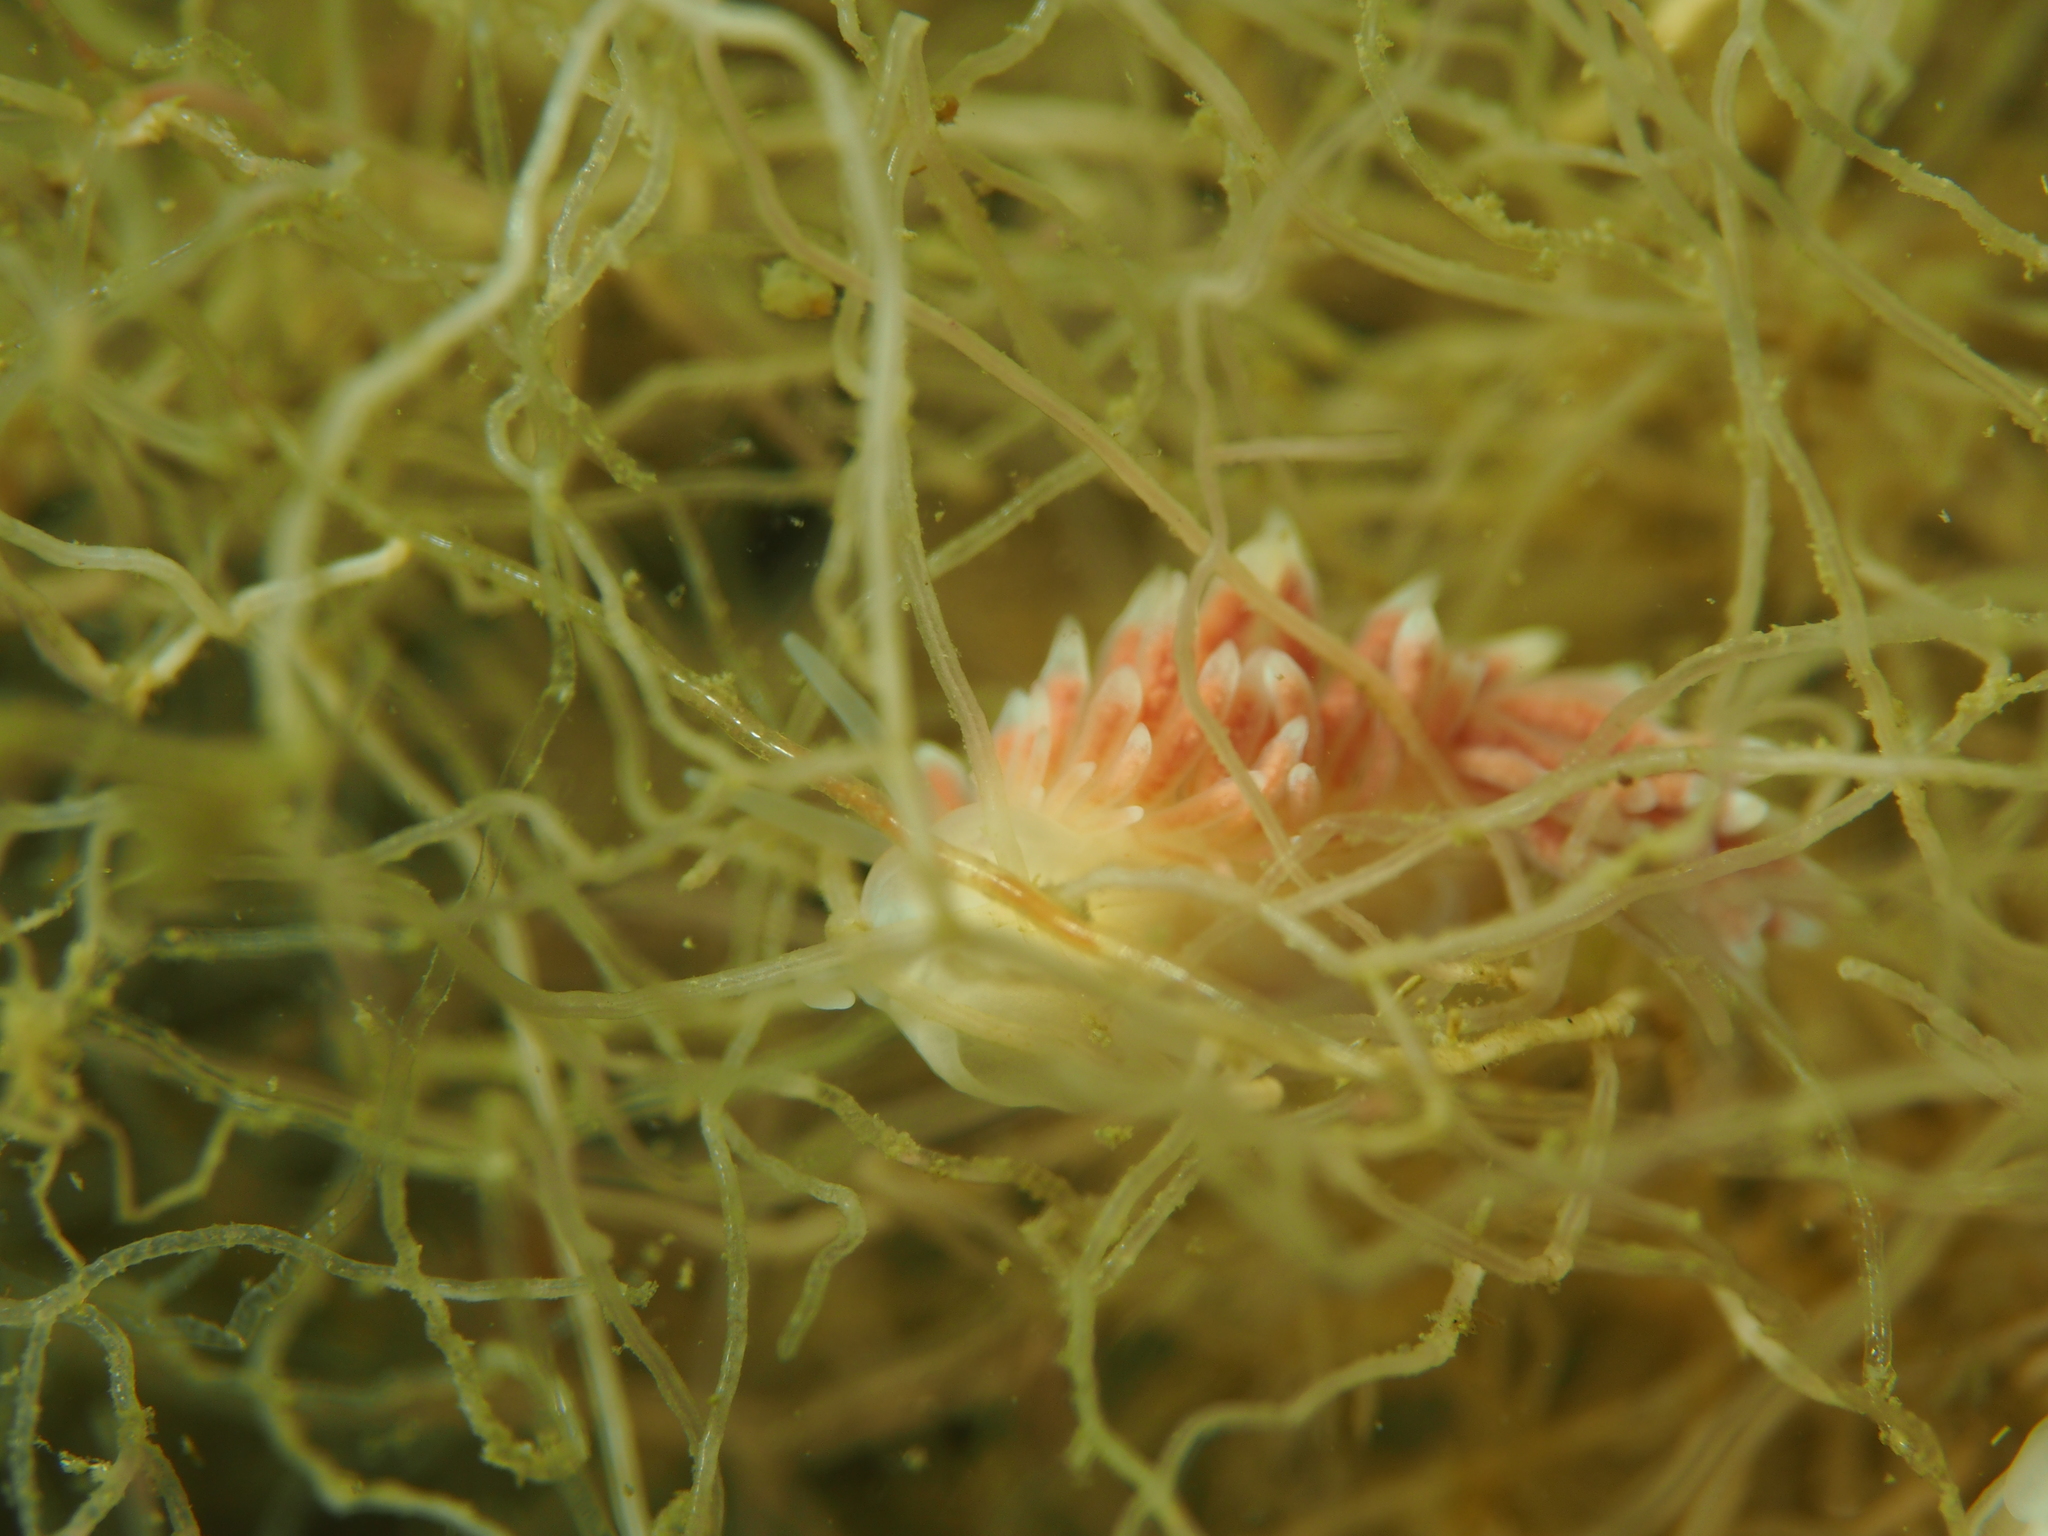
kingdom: Animalia
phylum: Mollusca
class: Gastropoda
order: Nudibranchia
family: Trinchesiidae
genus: Catriona
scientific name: Catriona aurantia
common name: Corange-tip cuthona
